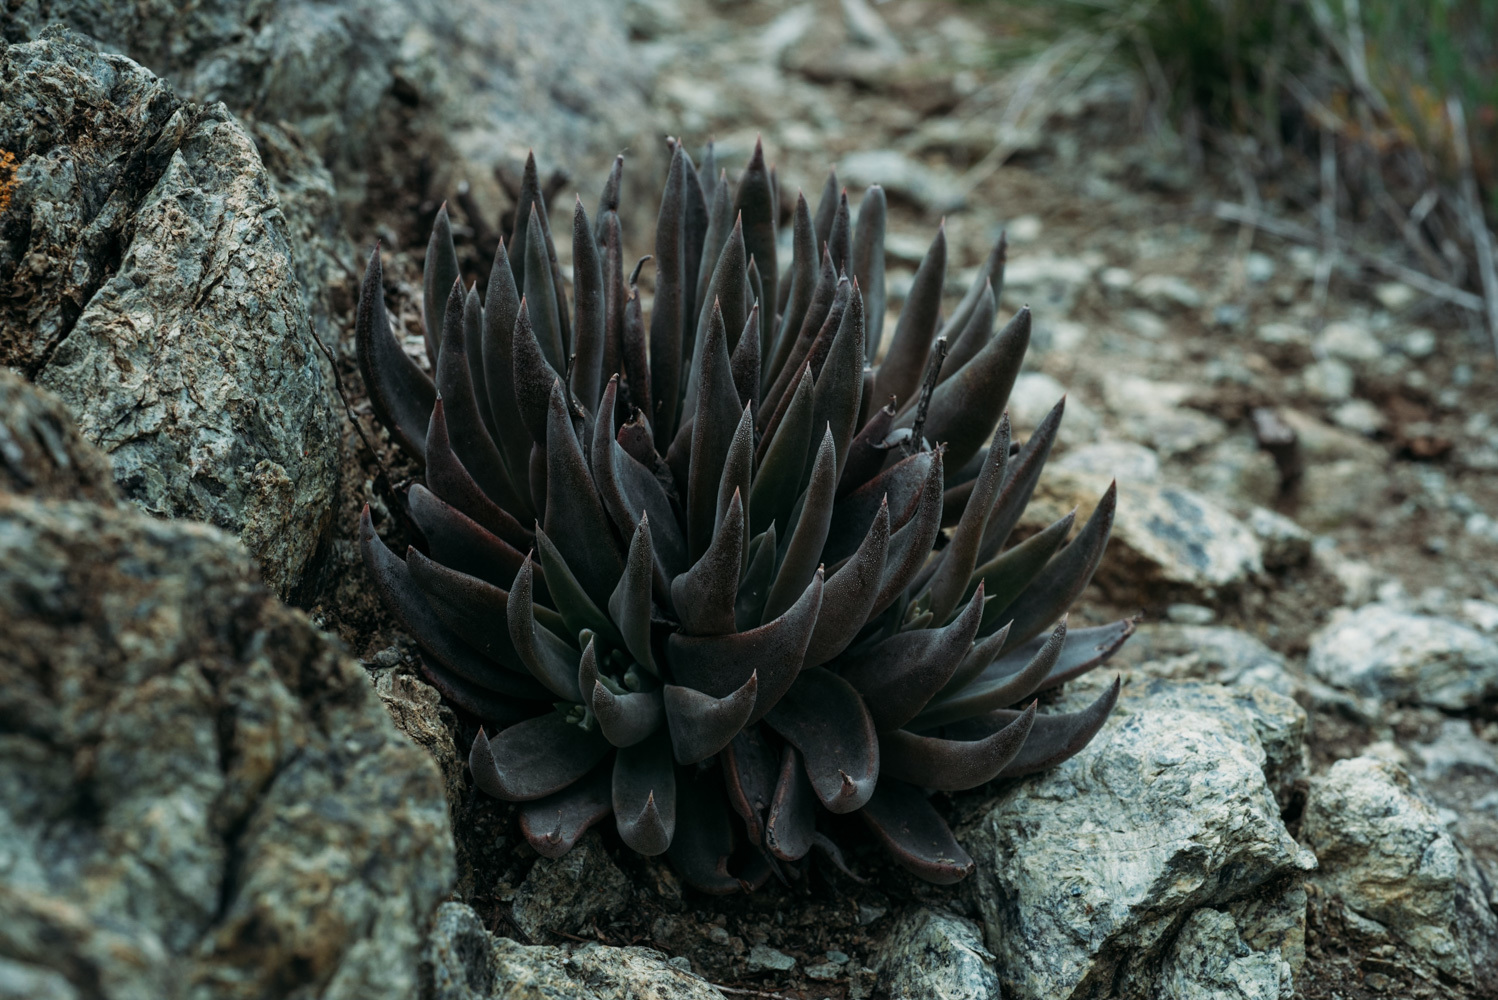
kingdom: Plantae
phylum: Tracheophyta
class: Magnoliopsida
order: Saxifragales
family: Crassulaceae
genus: Dudleya
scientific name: Dudleya abramsii
